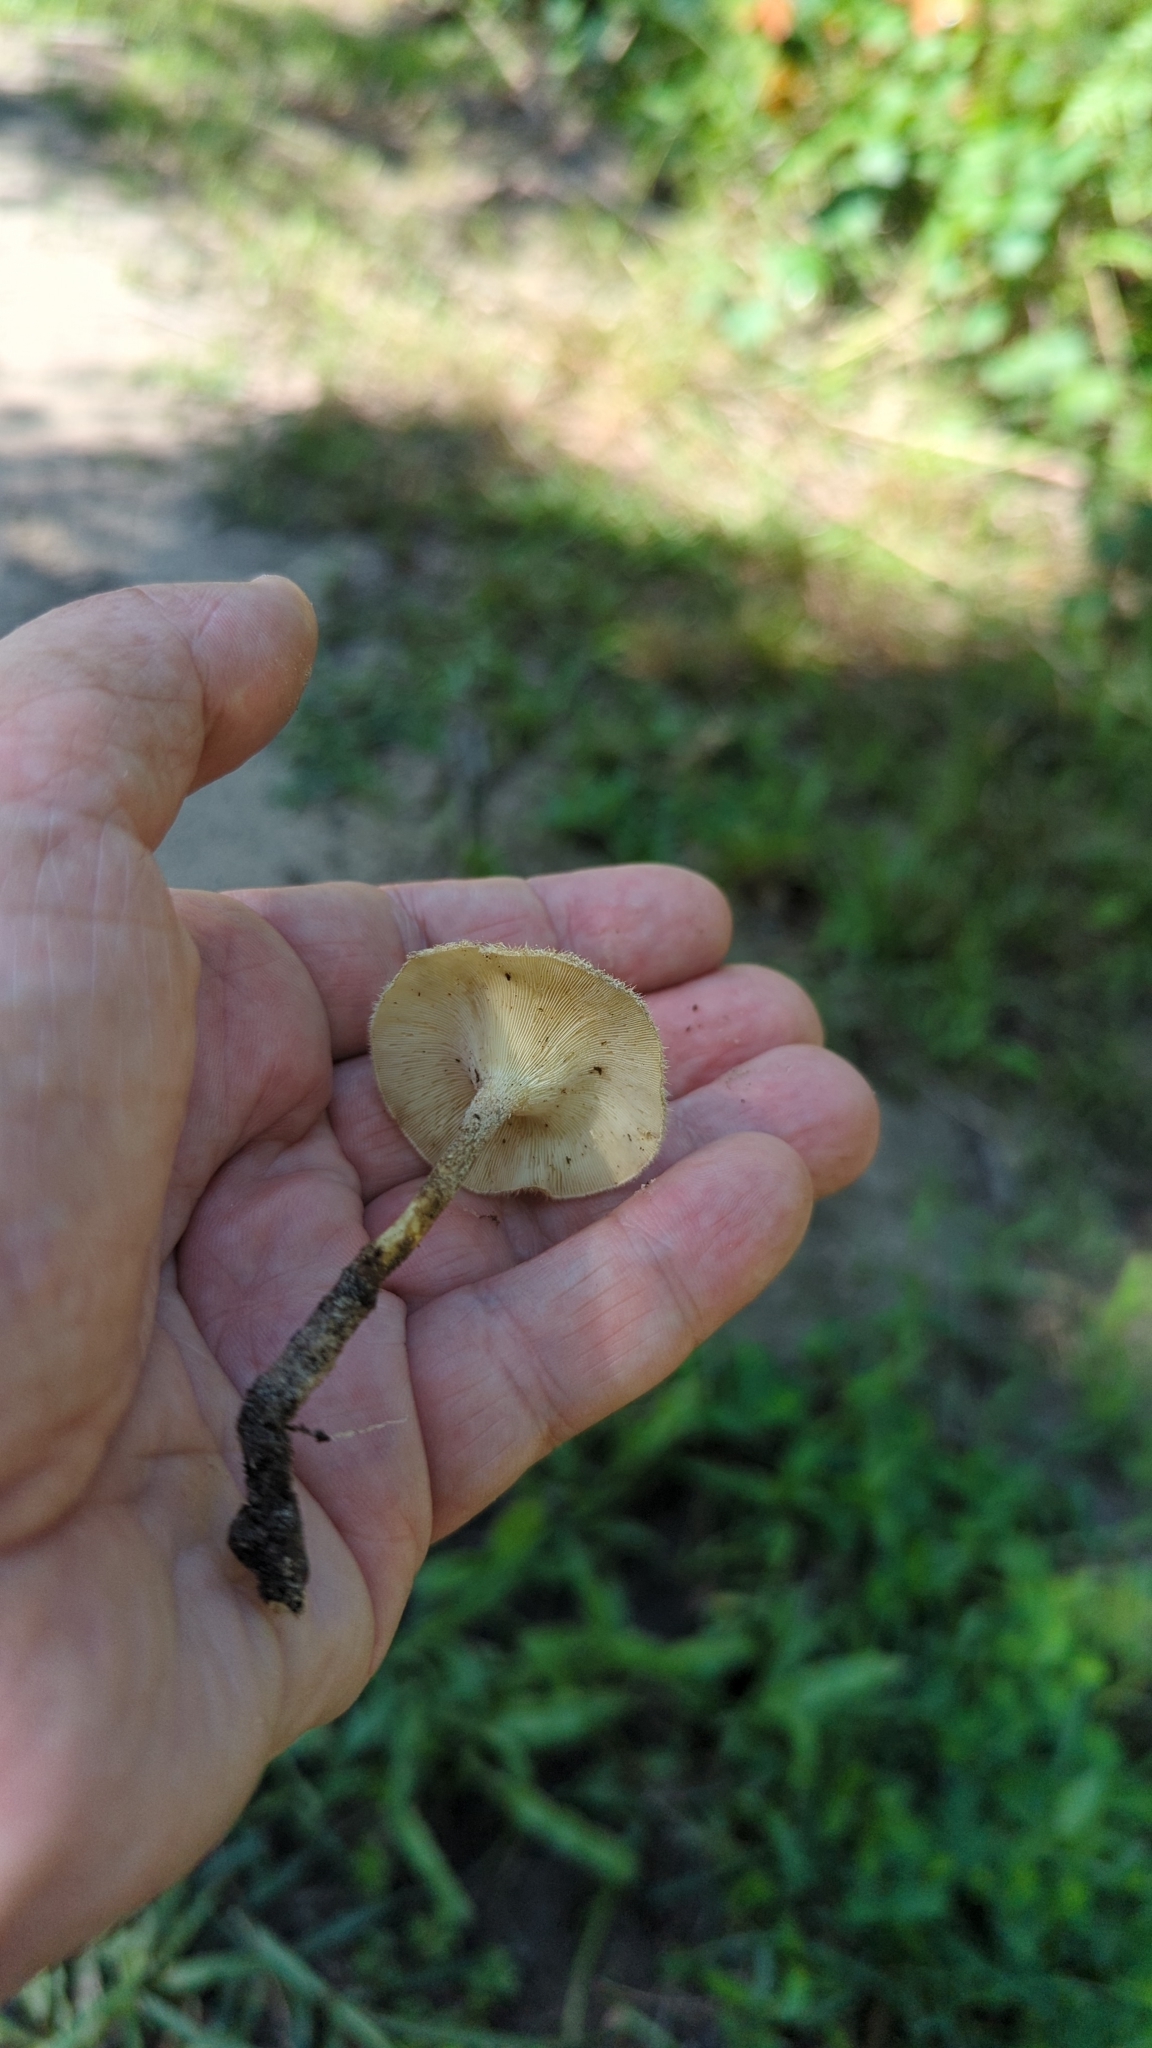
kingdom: Fungi
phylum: Basidiomycota
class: Agaricomycetes
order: Polyporales
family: Polyporaceae
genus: Lentinus
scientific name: Lentinus crinitus
